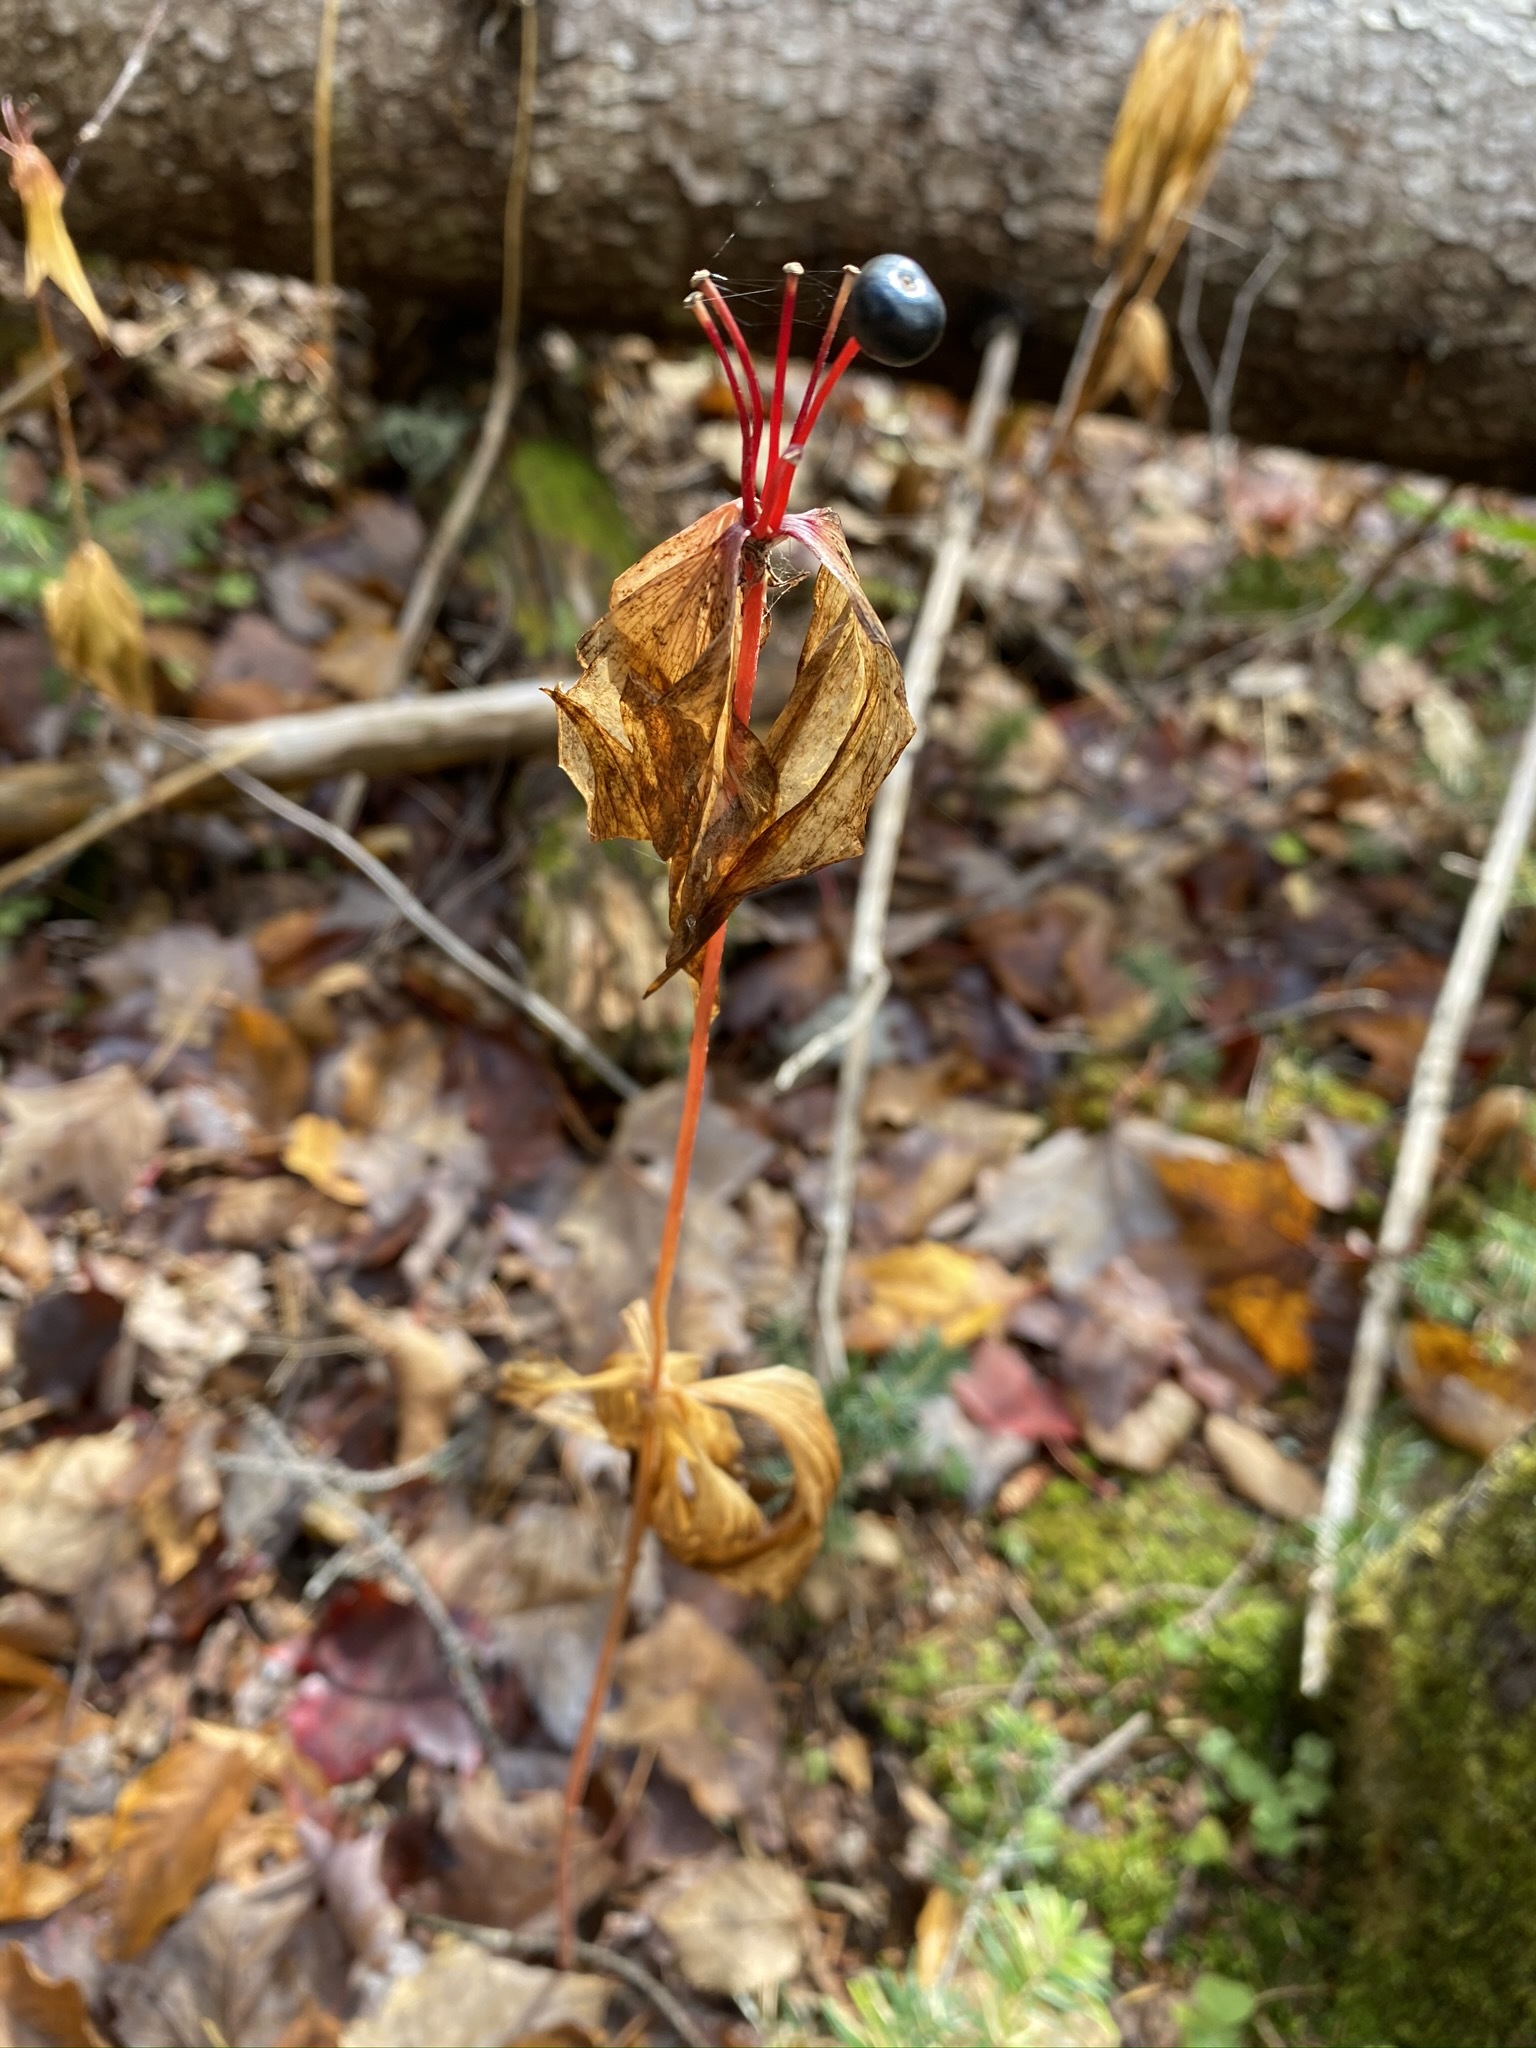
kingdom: Plantae
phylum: Tracheophyta
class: Liliopsida
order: Liliales
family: Liliaceae
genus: Medeola
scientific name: Medeola virginiana
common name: Indian cucumber-root
